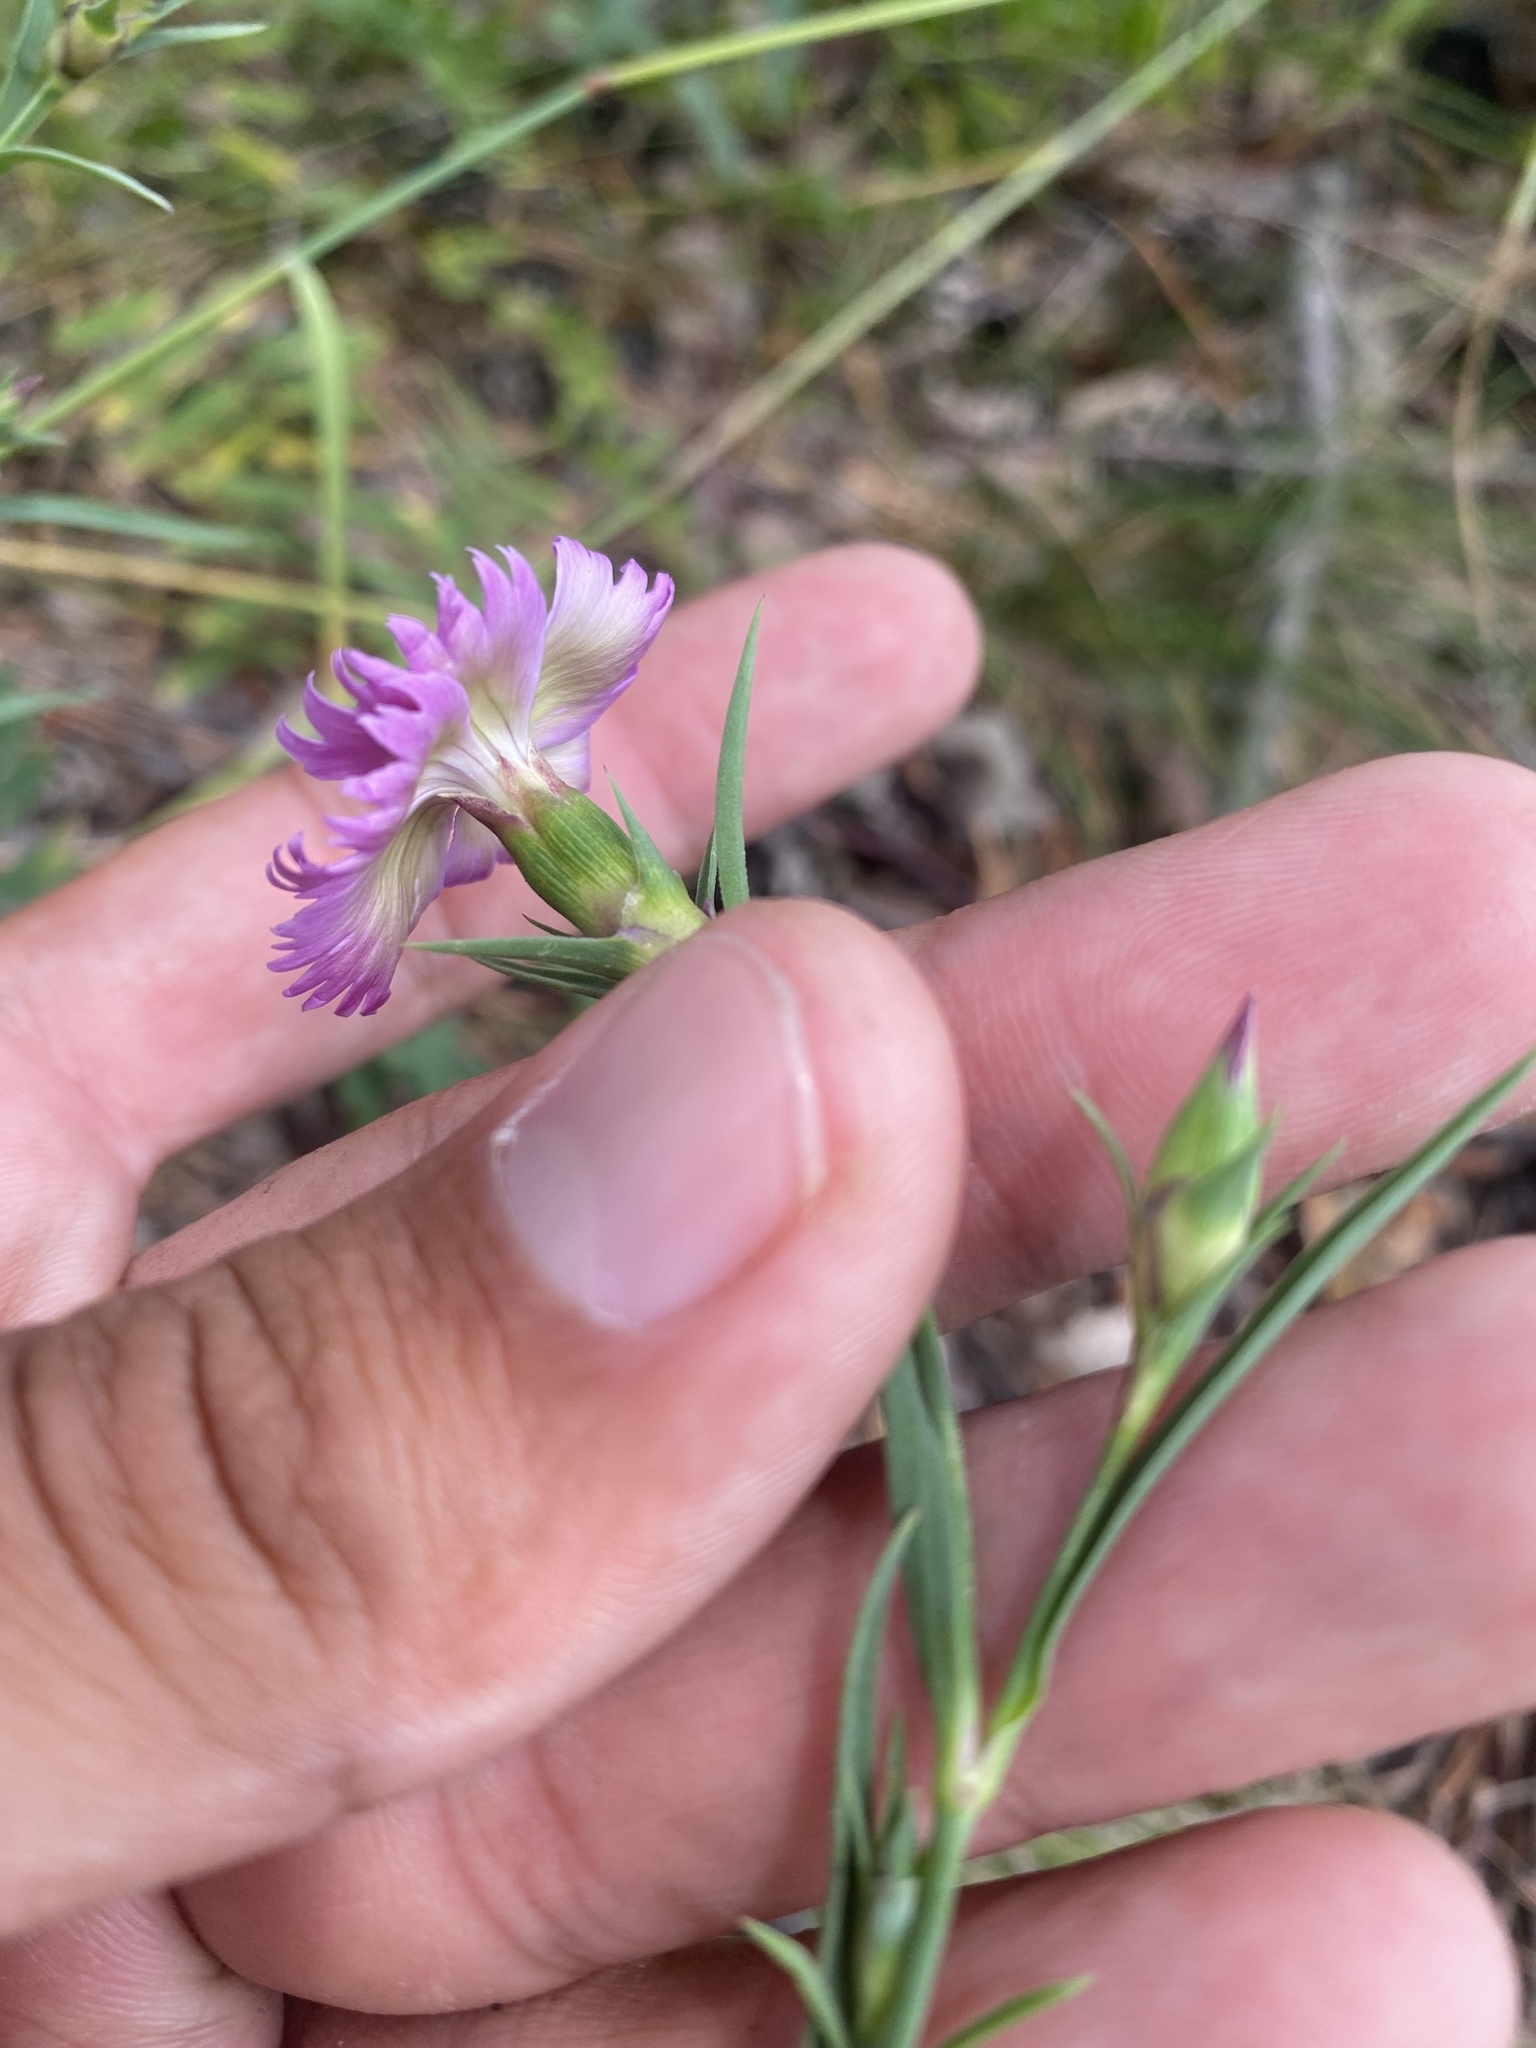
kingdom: Plantae
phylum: Tracheophyta
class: Magnoliopsida
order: Caryophyllales
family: Caryophyllaceae
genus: Dianthus
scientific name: Dianthus chinensis
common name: Rainbow pink
